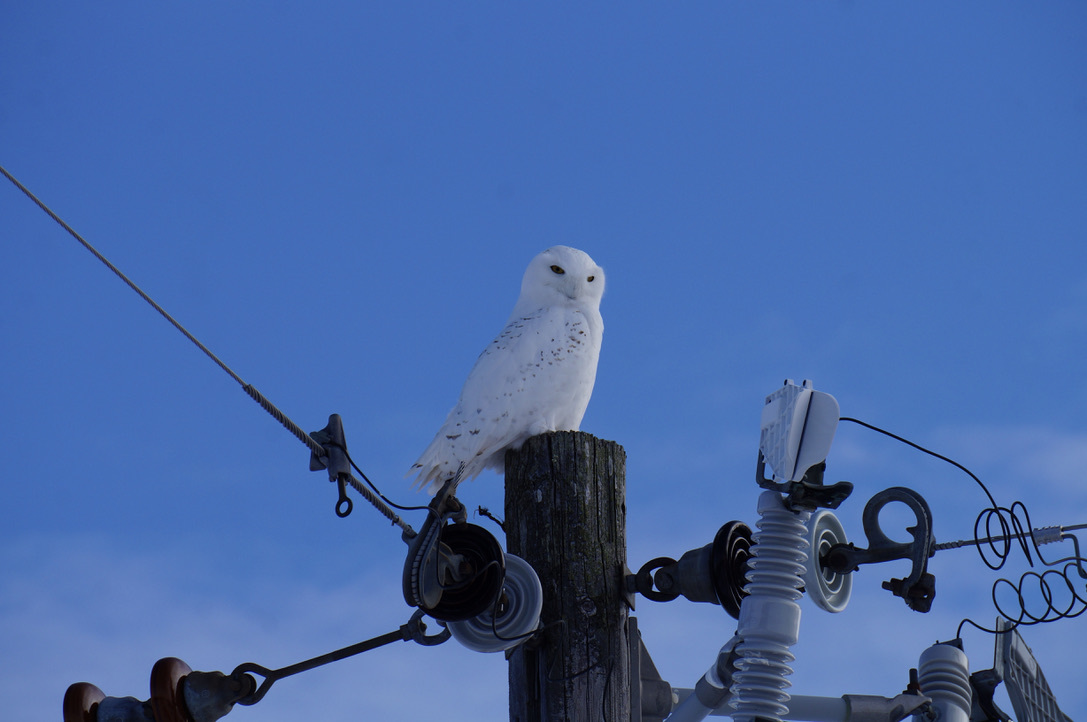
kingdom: Animalia
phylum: Chordata
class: Aves
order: Strigiformes
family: Strigidae
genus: Bubo
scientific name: Bubo scandiacus
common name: Snowy owl
